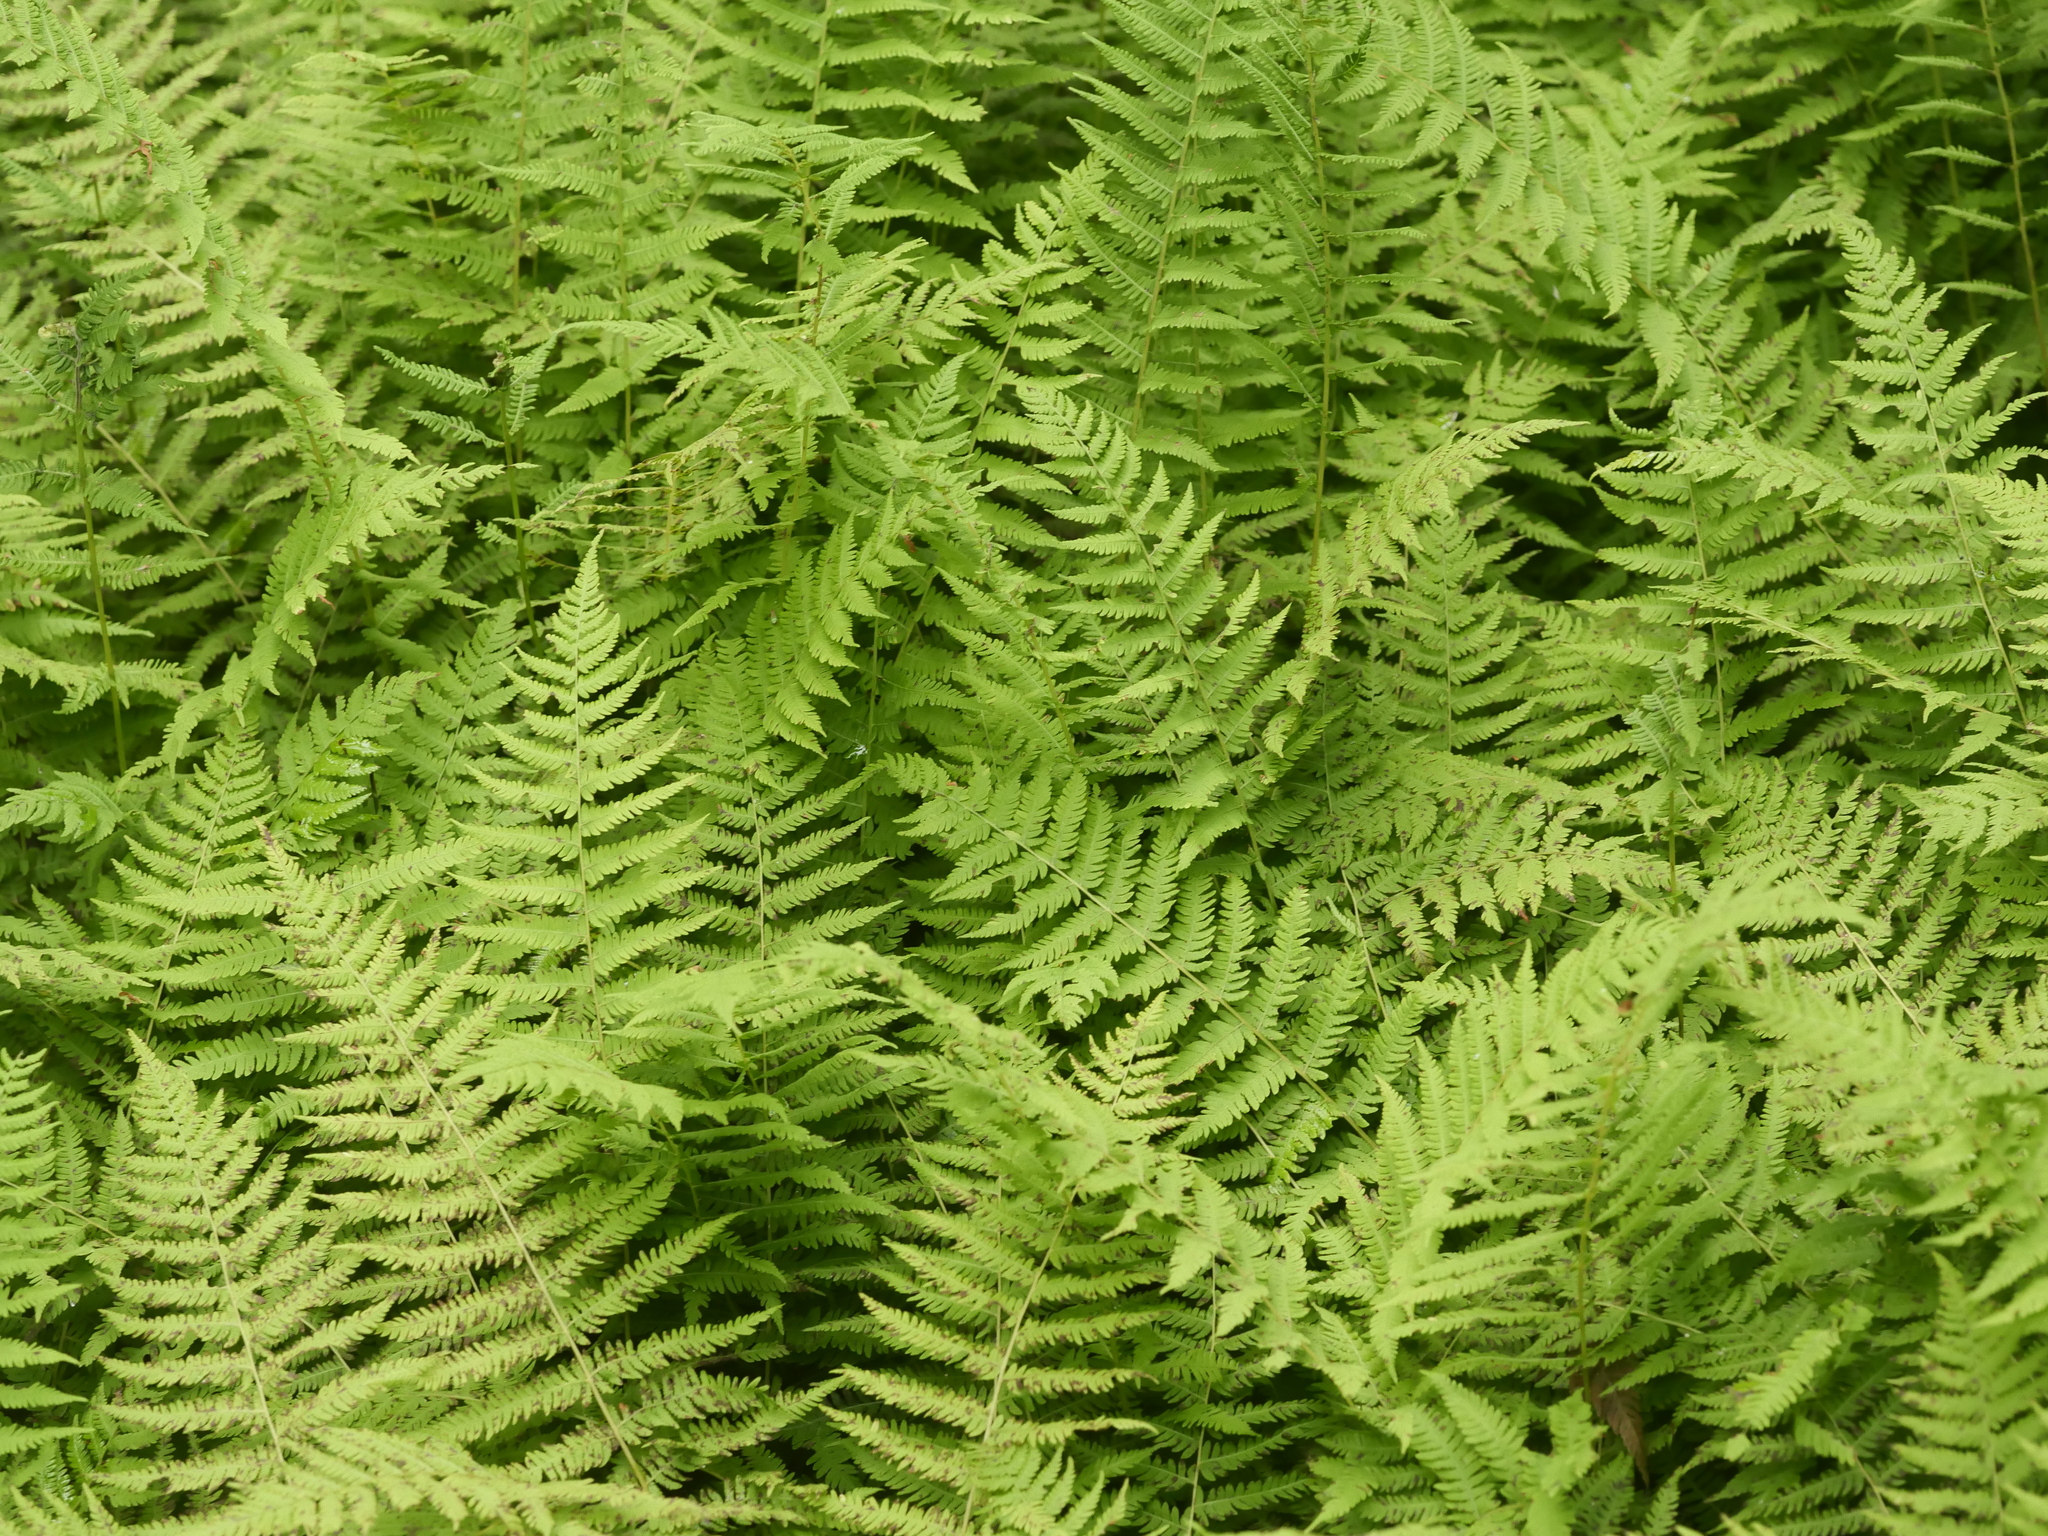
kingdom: Plantae
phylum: Tracheophyta
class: Polypodiopsida
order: Polypodiales
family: Thelypteridaceae
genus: Amauropelta
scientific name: Amauropelta noveboracensis
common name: New york fern
